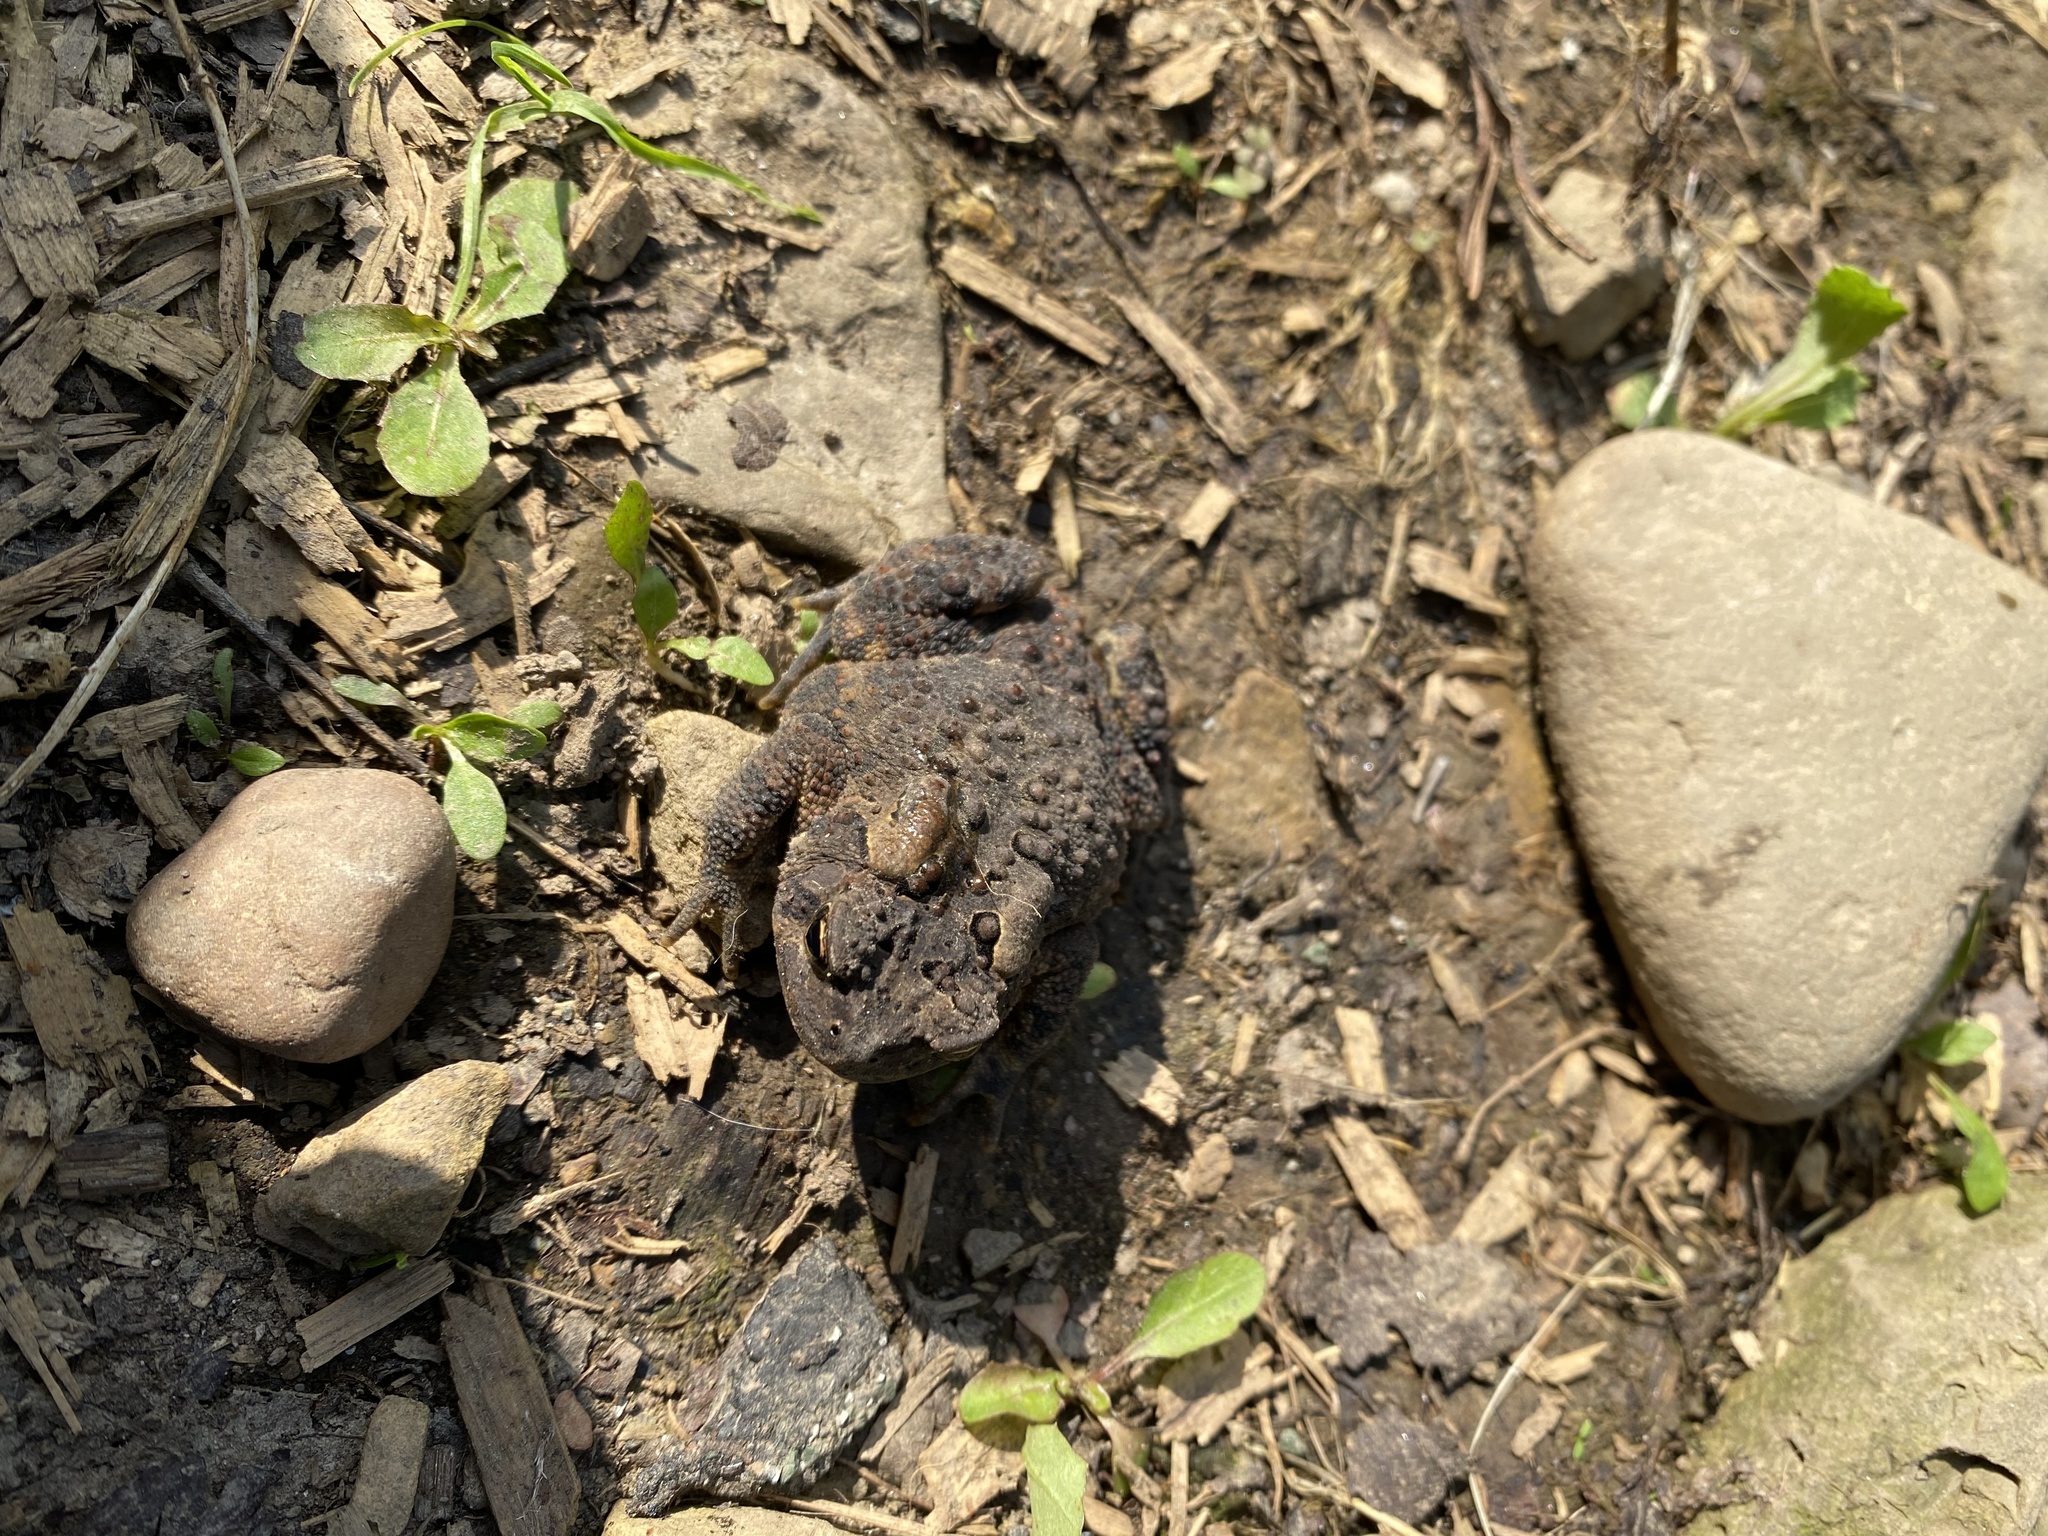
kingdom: Animalia
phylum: Chordata
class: Amphibia
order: Anura
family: Bufonidae
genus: Anaxyrus
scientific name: Anaxyrus americanus
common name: American toad
